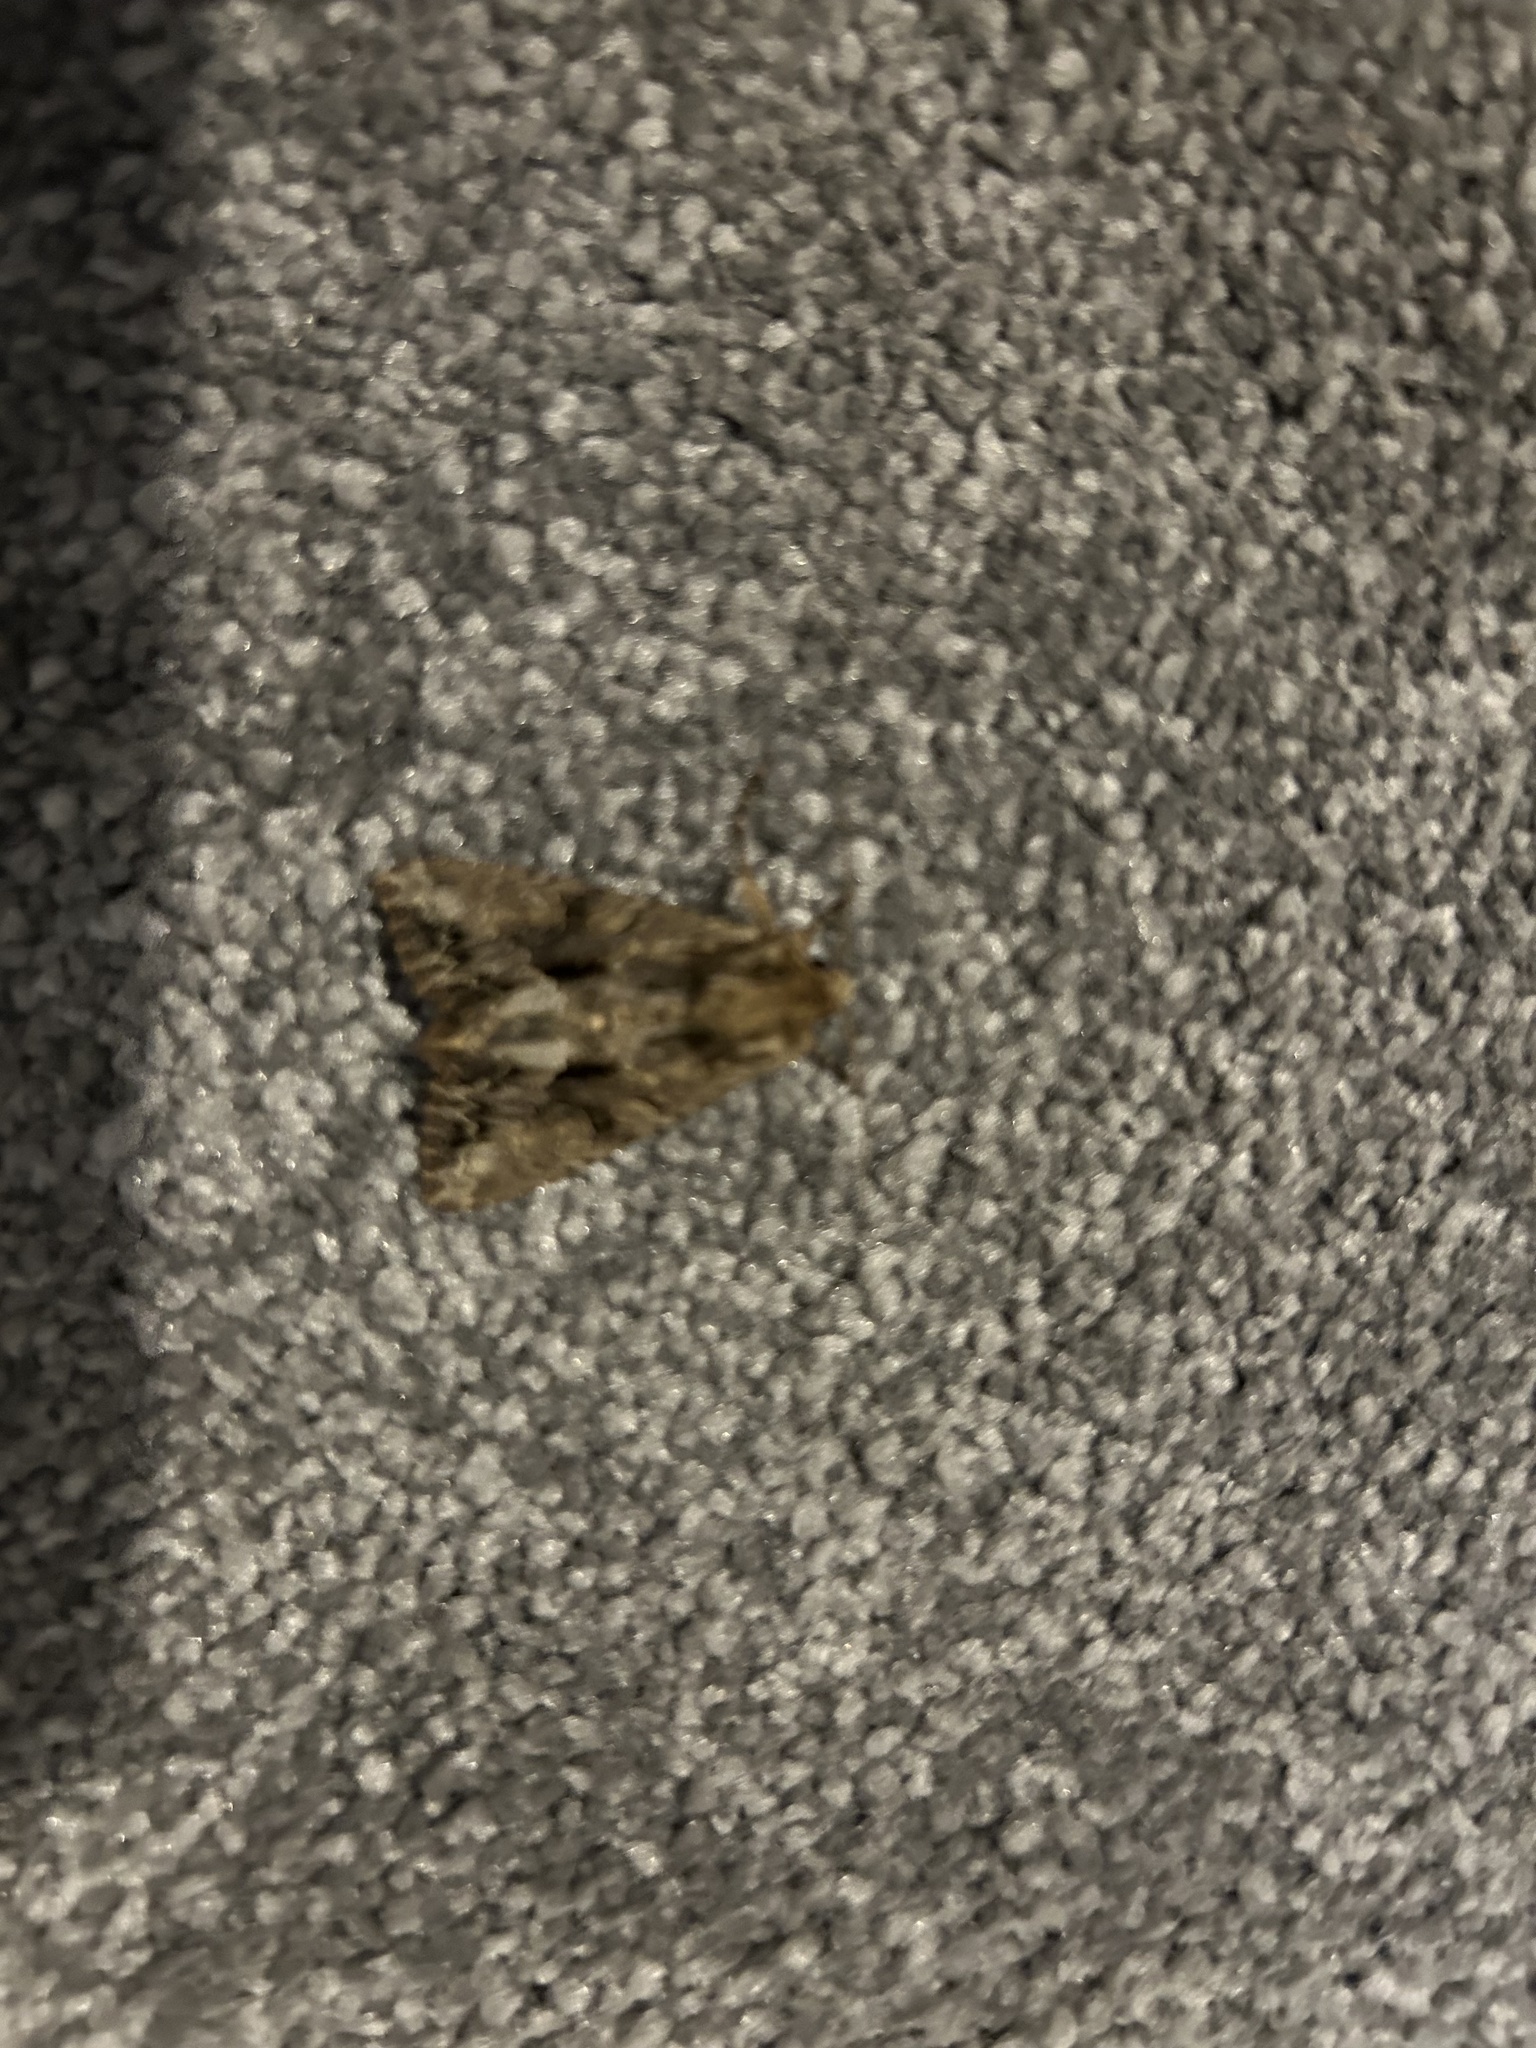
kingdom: Animalia
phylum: Arthropoda
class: Insecta
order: Lepidoptera
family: Noctuidae
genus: Apamea
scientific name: Apamea monoglypha
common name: Dark arches
